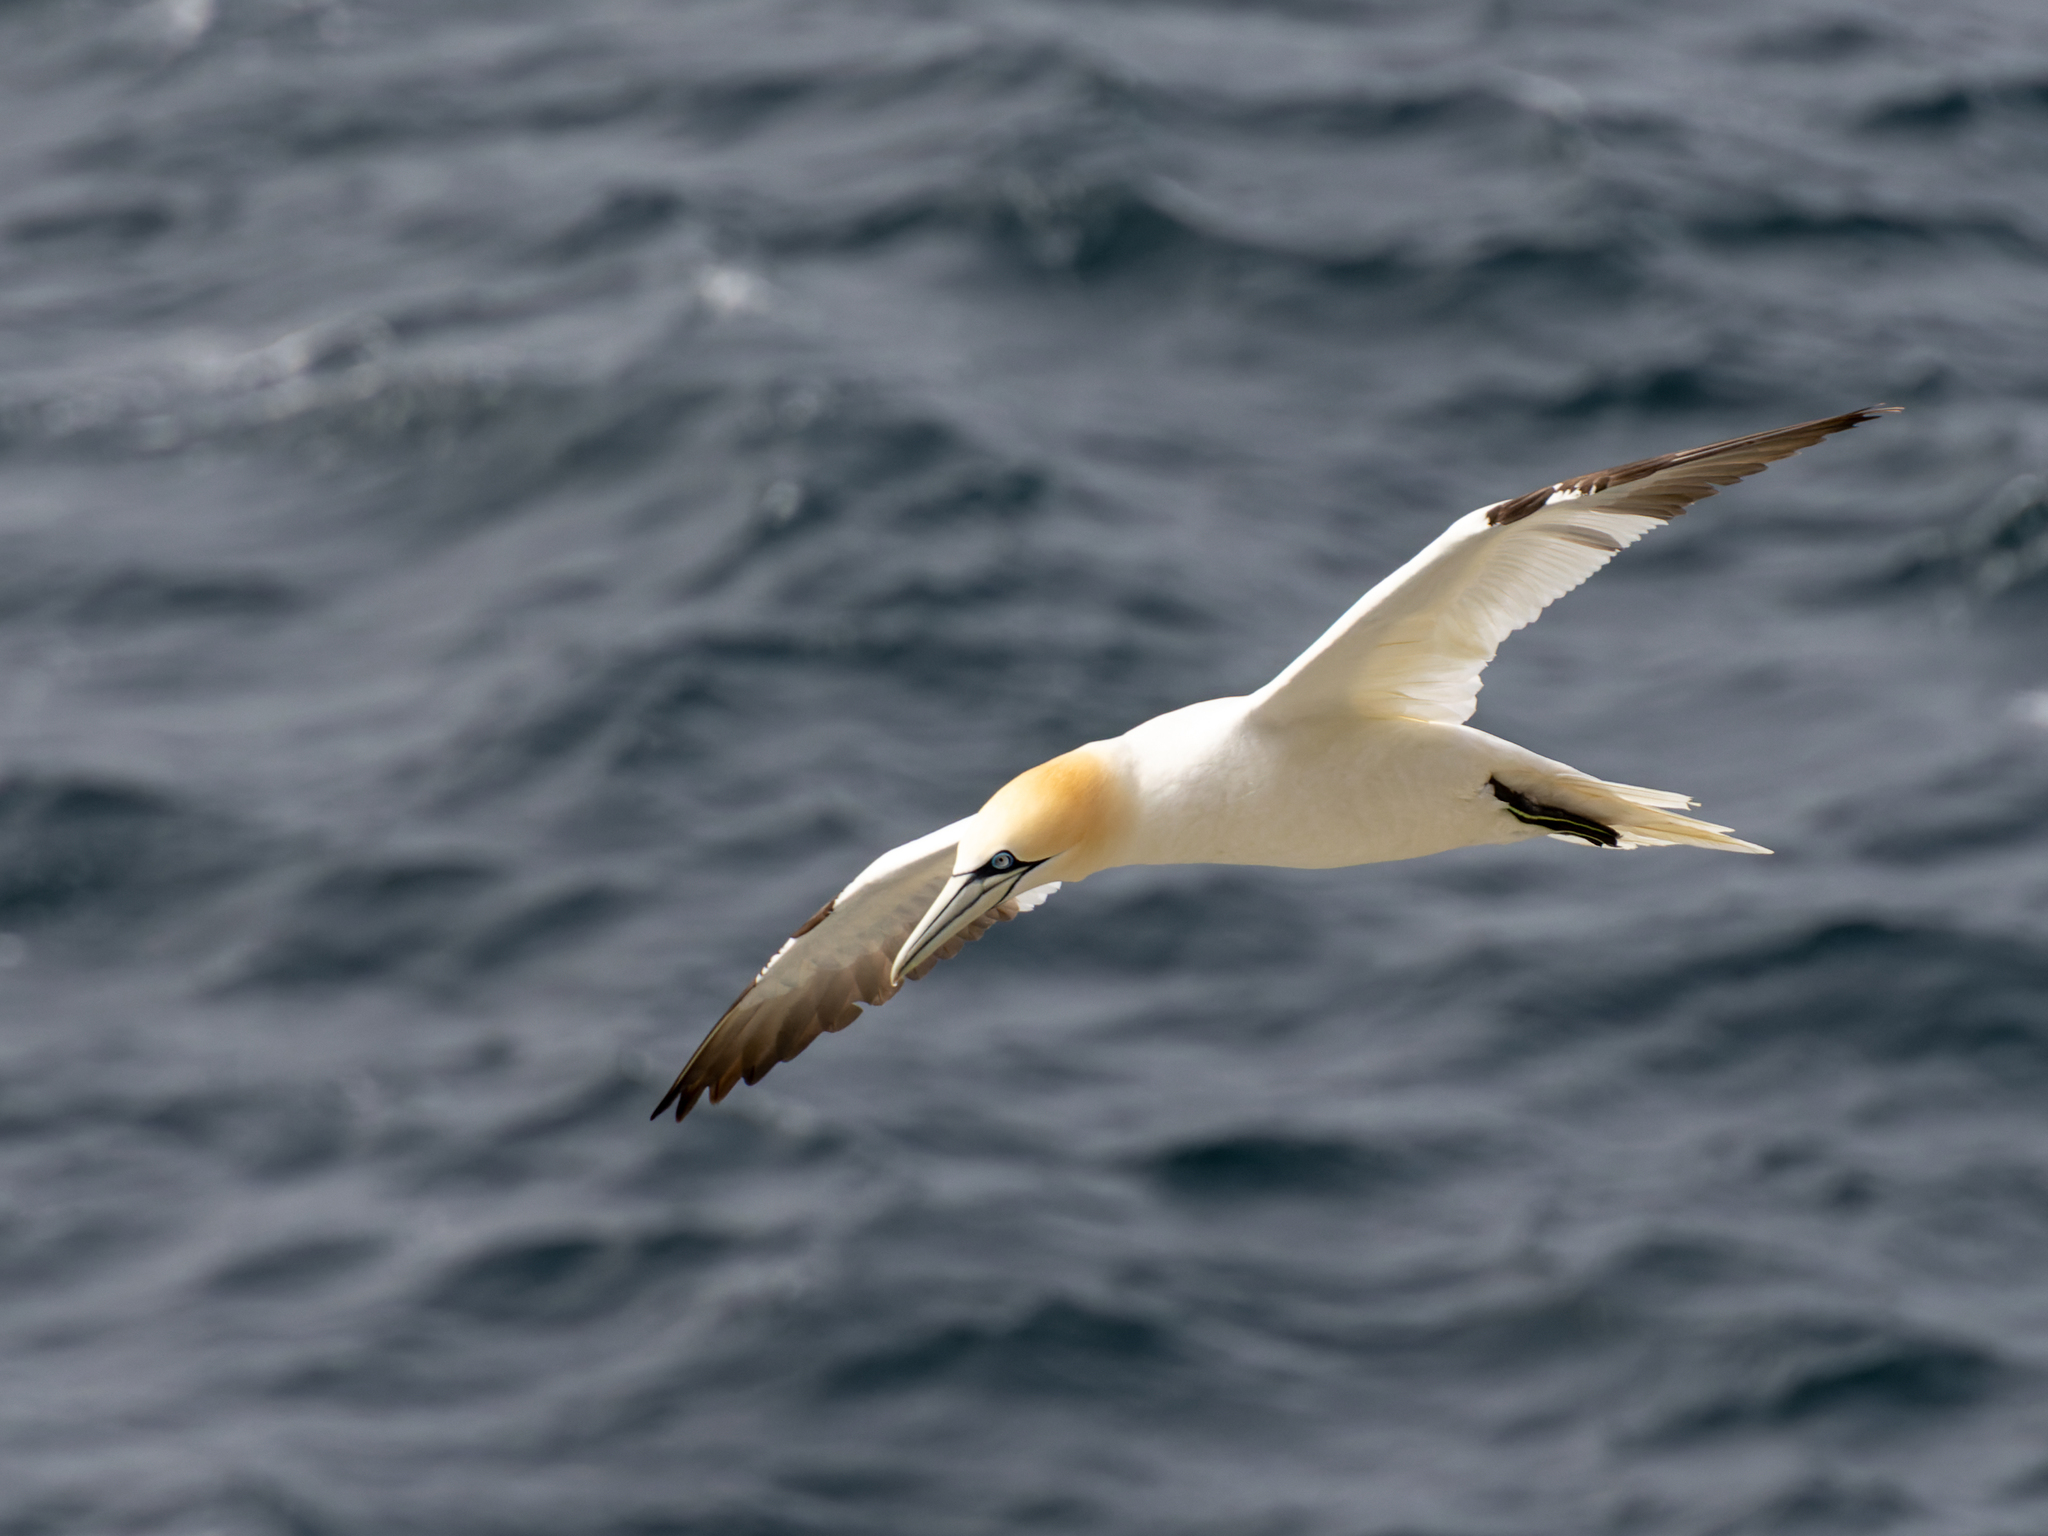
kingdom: Animalia
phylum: Chordata
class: Aves
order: Suliformes
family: Sulidae
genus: Morus
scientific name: Morus bassanus
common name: Northern gannet
